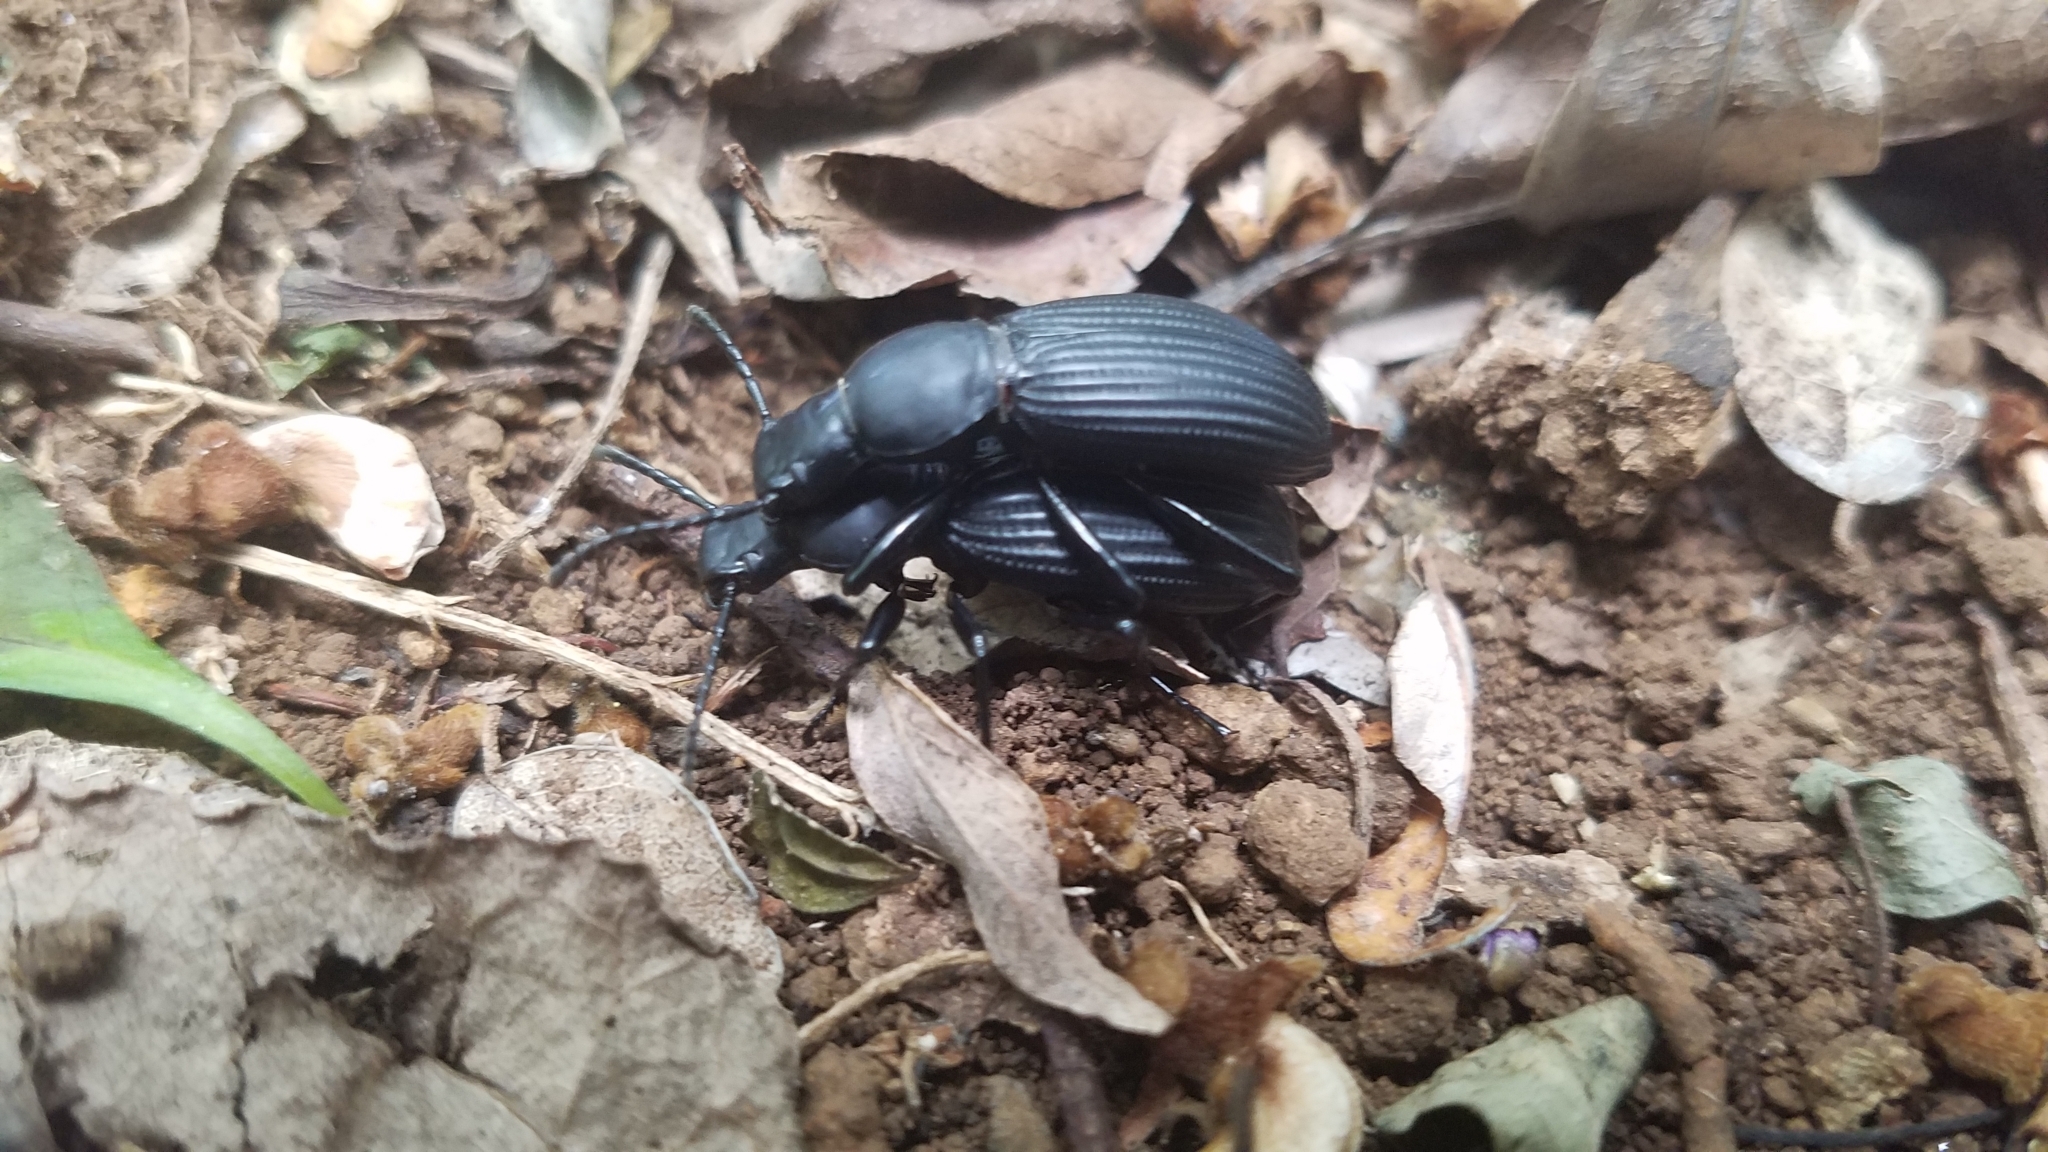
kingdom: Animalia
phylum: Arthropoda
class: Insecta
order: Coleoptera
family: Tenebrionidae
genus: Rhinandrus
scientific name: Rhinandrus elongatus
